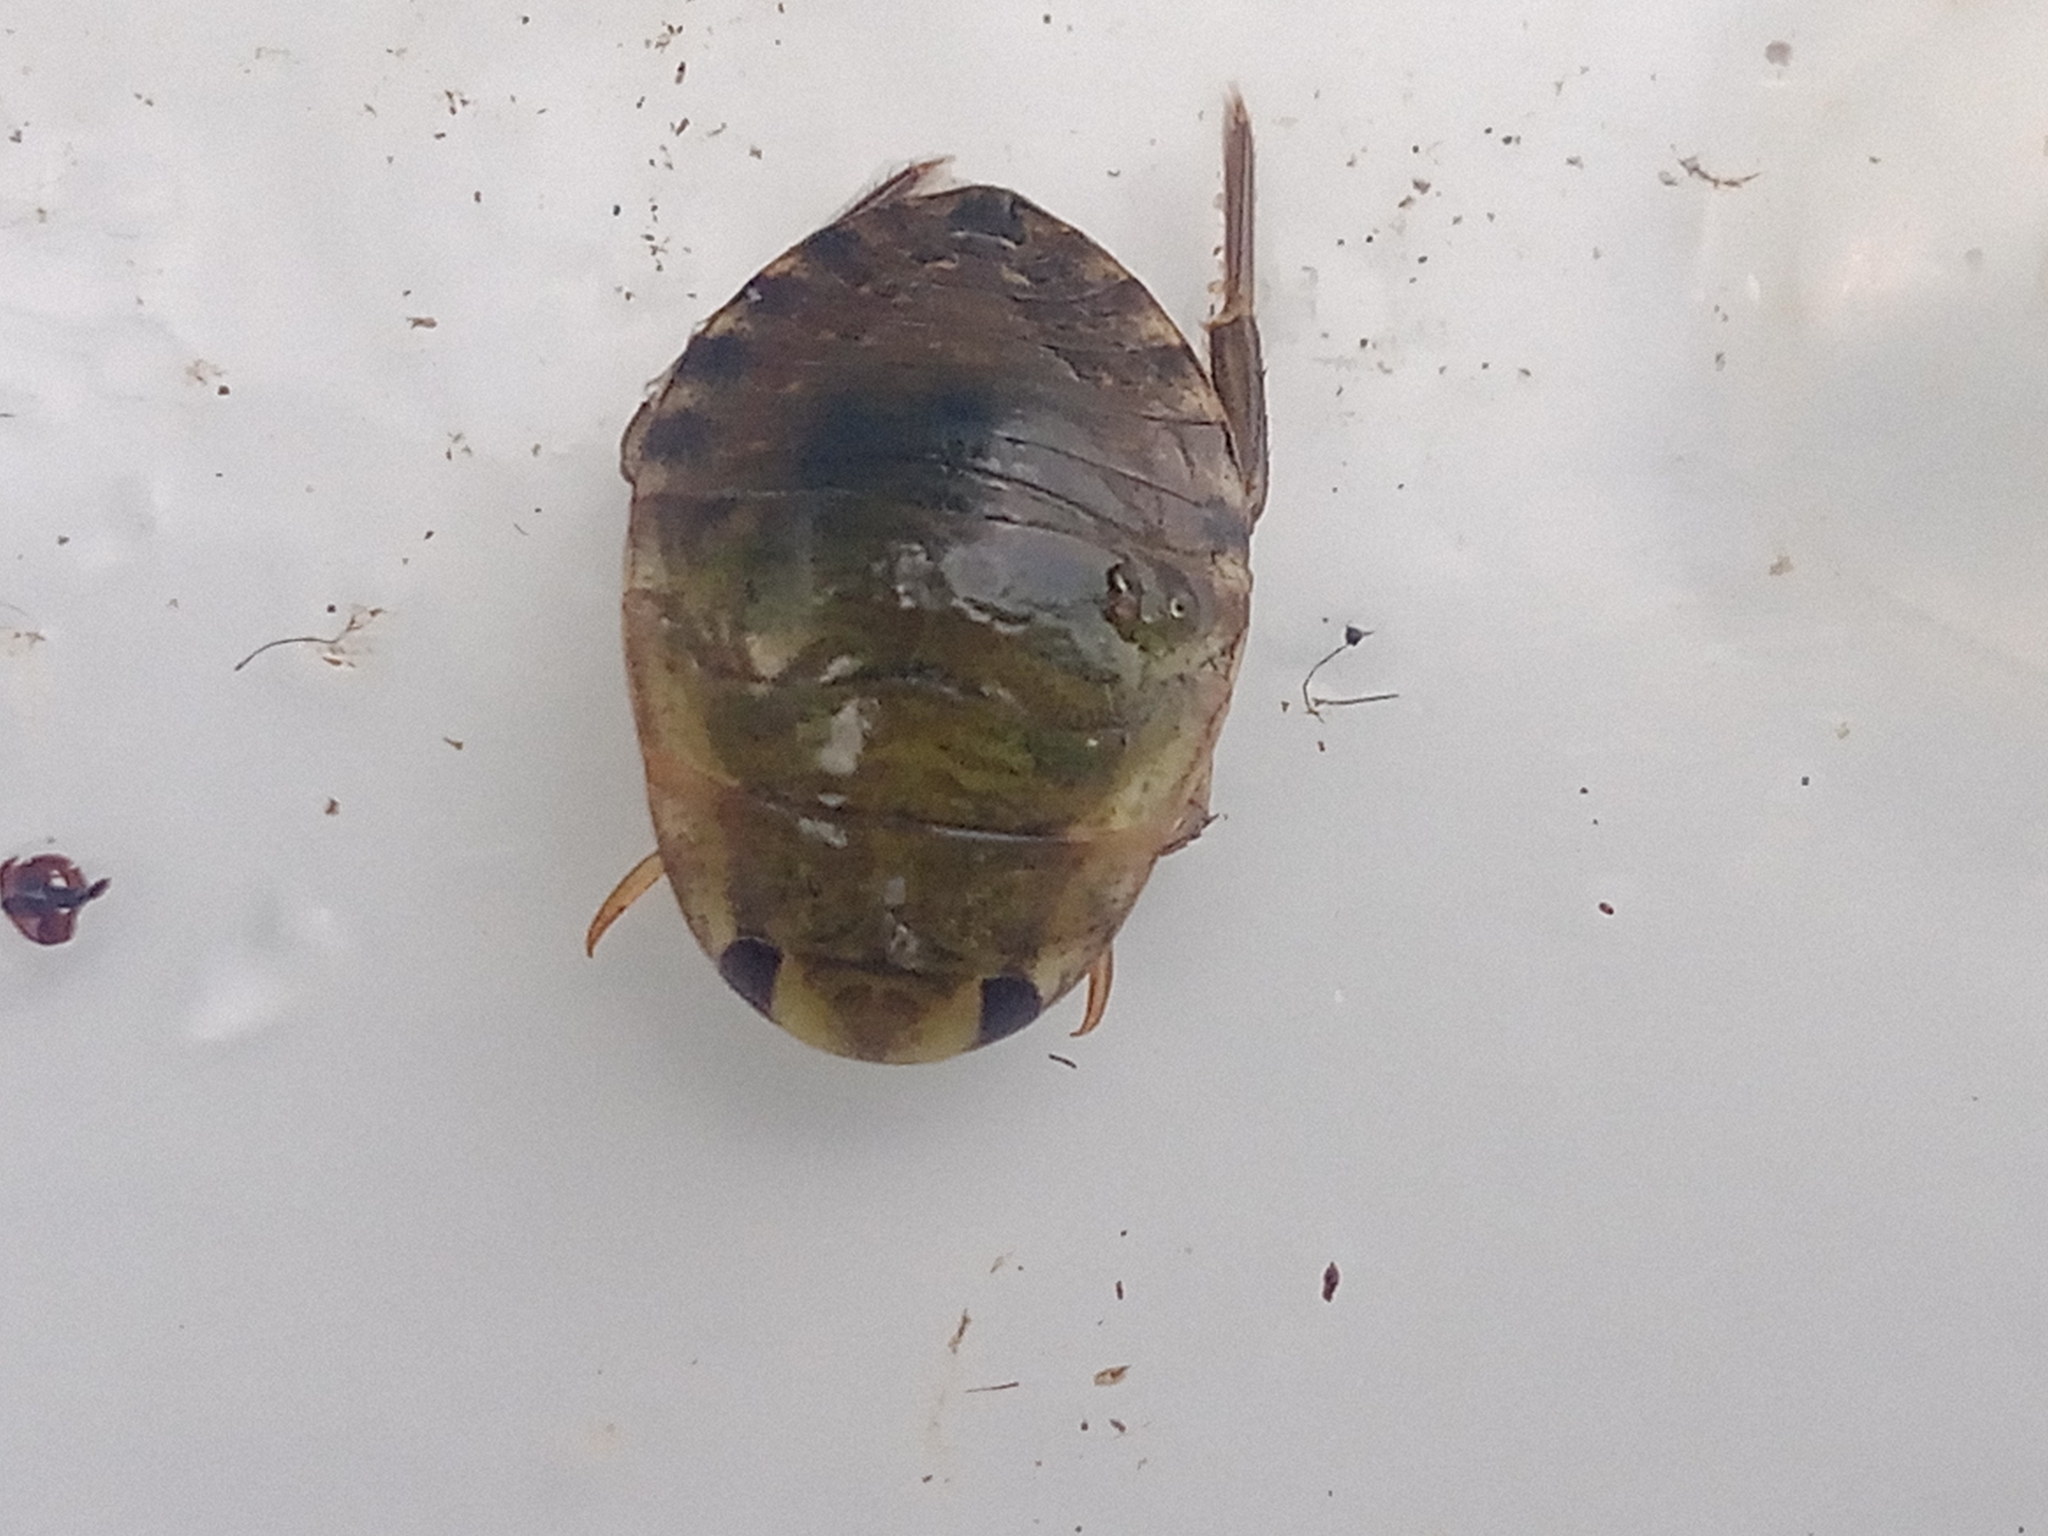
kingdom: Animalia
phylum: Arthropoda
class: Insecta
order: Hemiptera
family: Naucoridae
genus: Ilyocoris
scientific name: Ilyocoris cimicoides
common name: Saucer bugs
